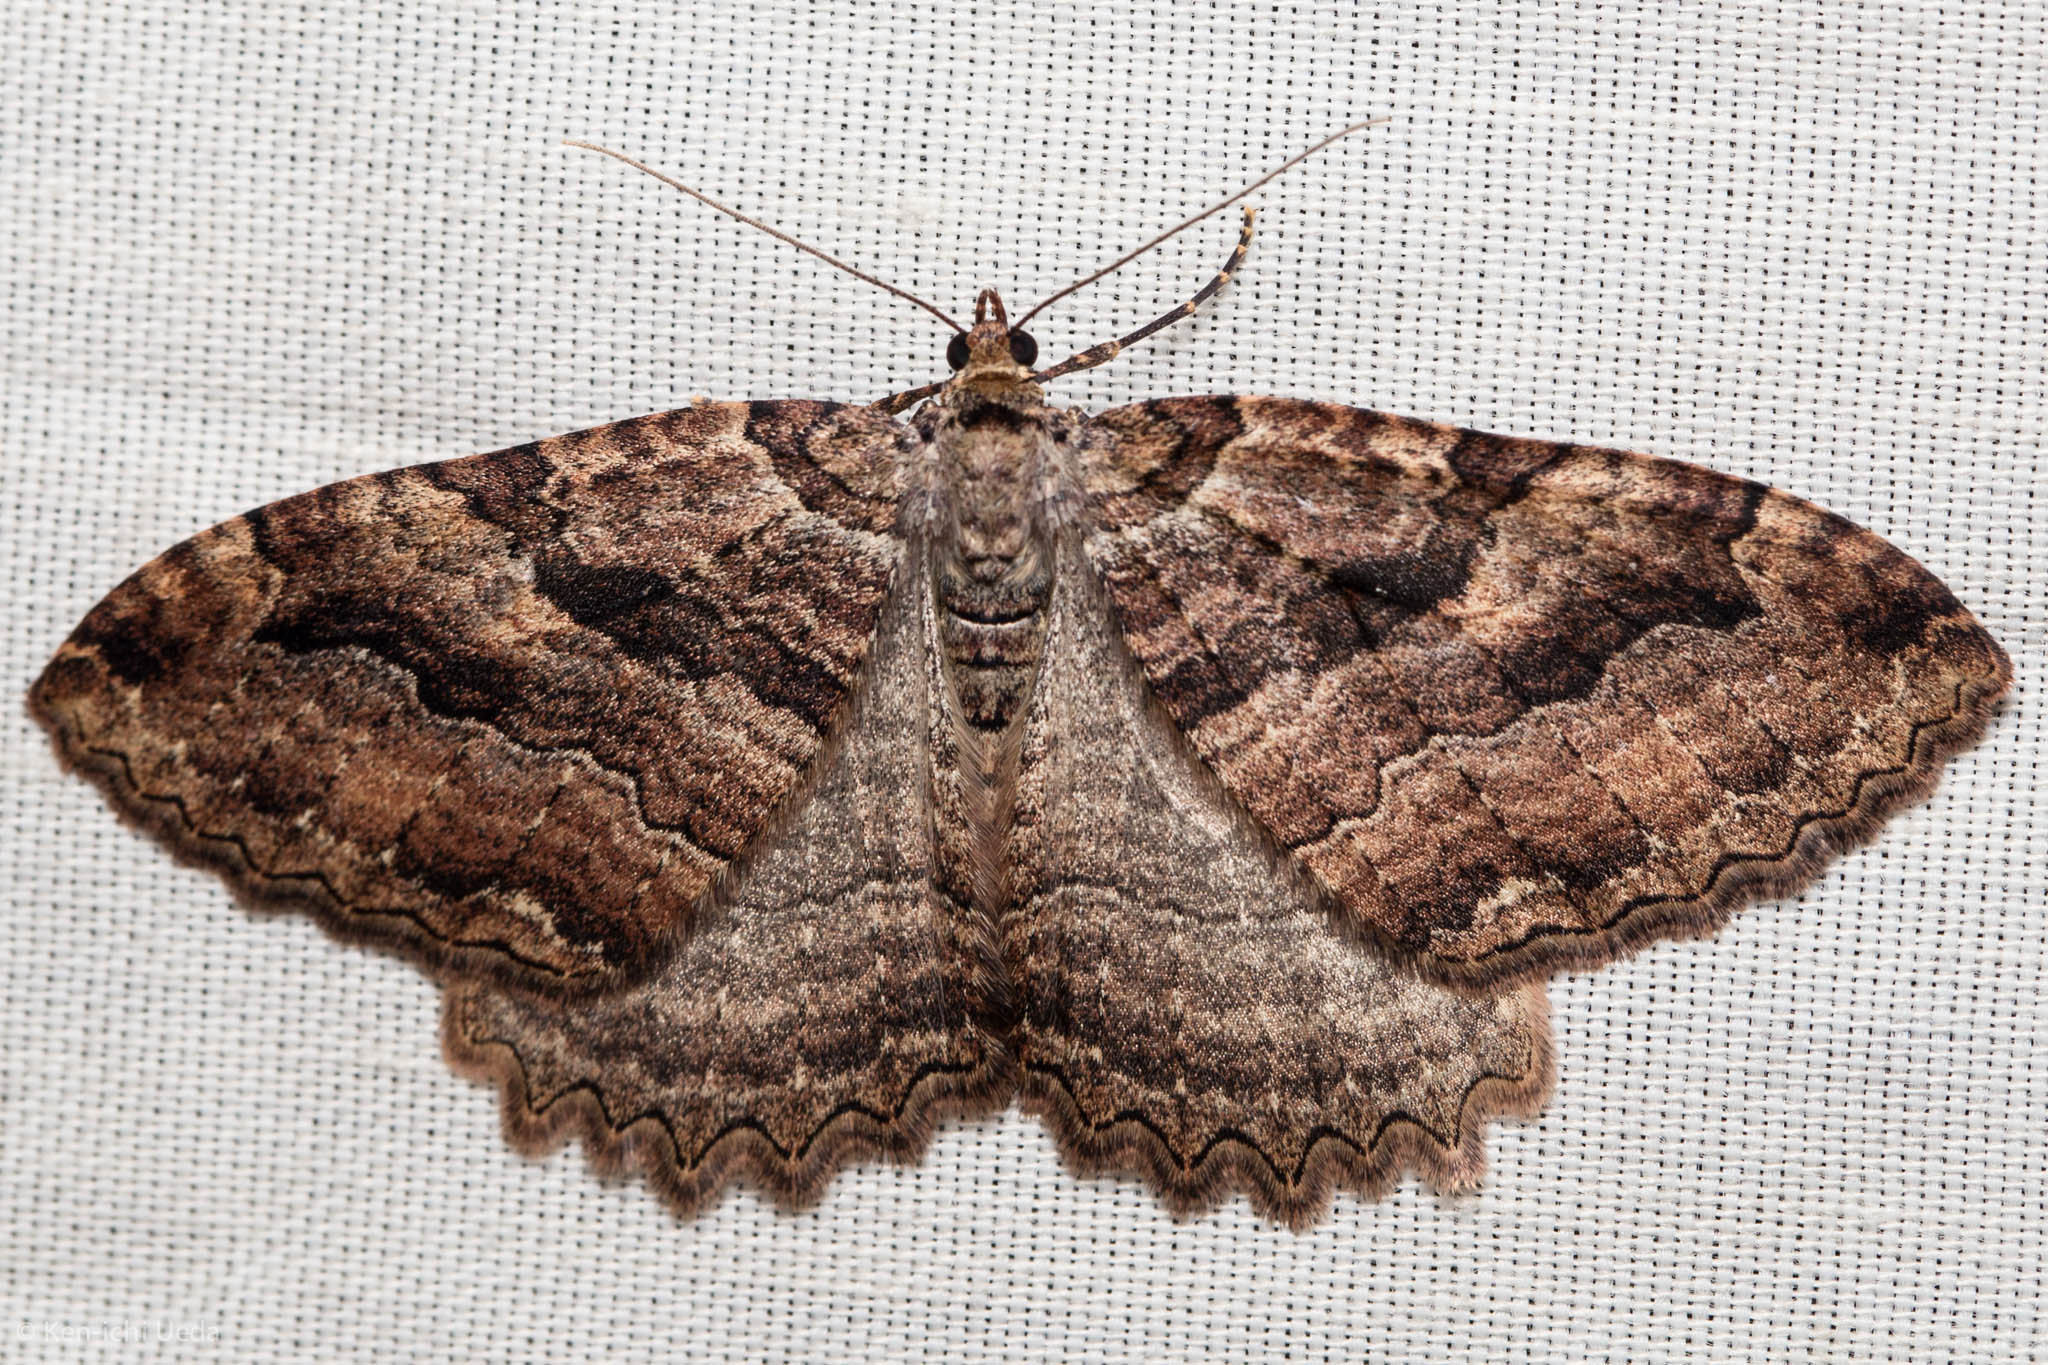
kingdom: Animalia
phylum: Arthropoda
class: Insecta
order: Lepidoptera
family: Geometridae
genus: Triphosa
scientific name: Triphosa haesitata
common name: Tissue moth
